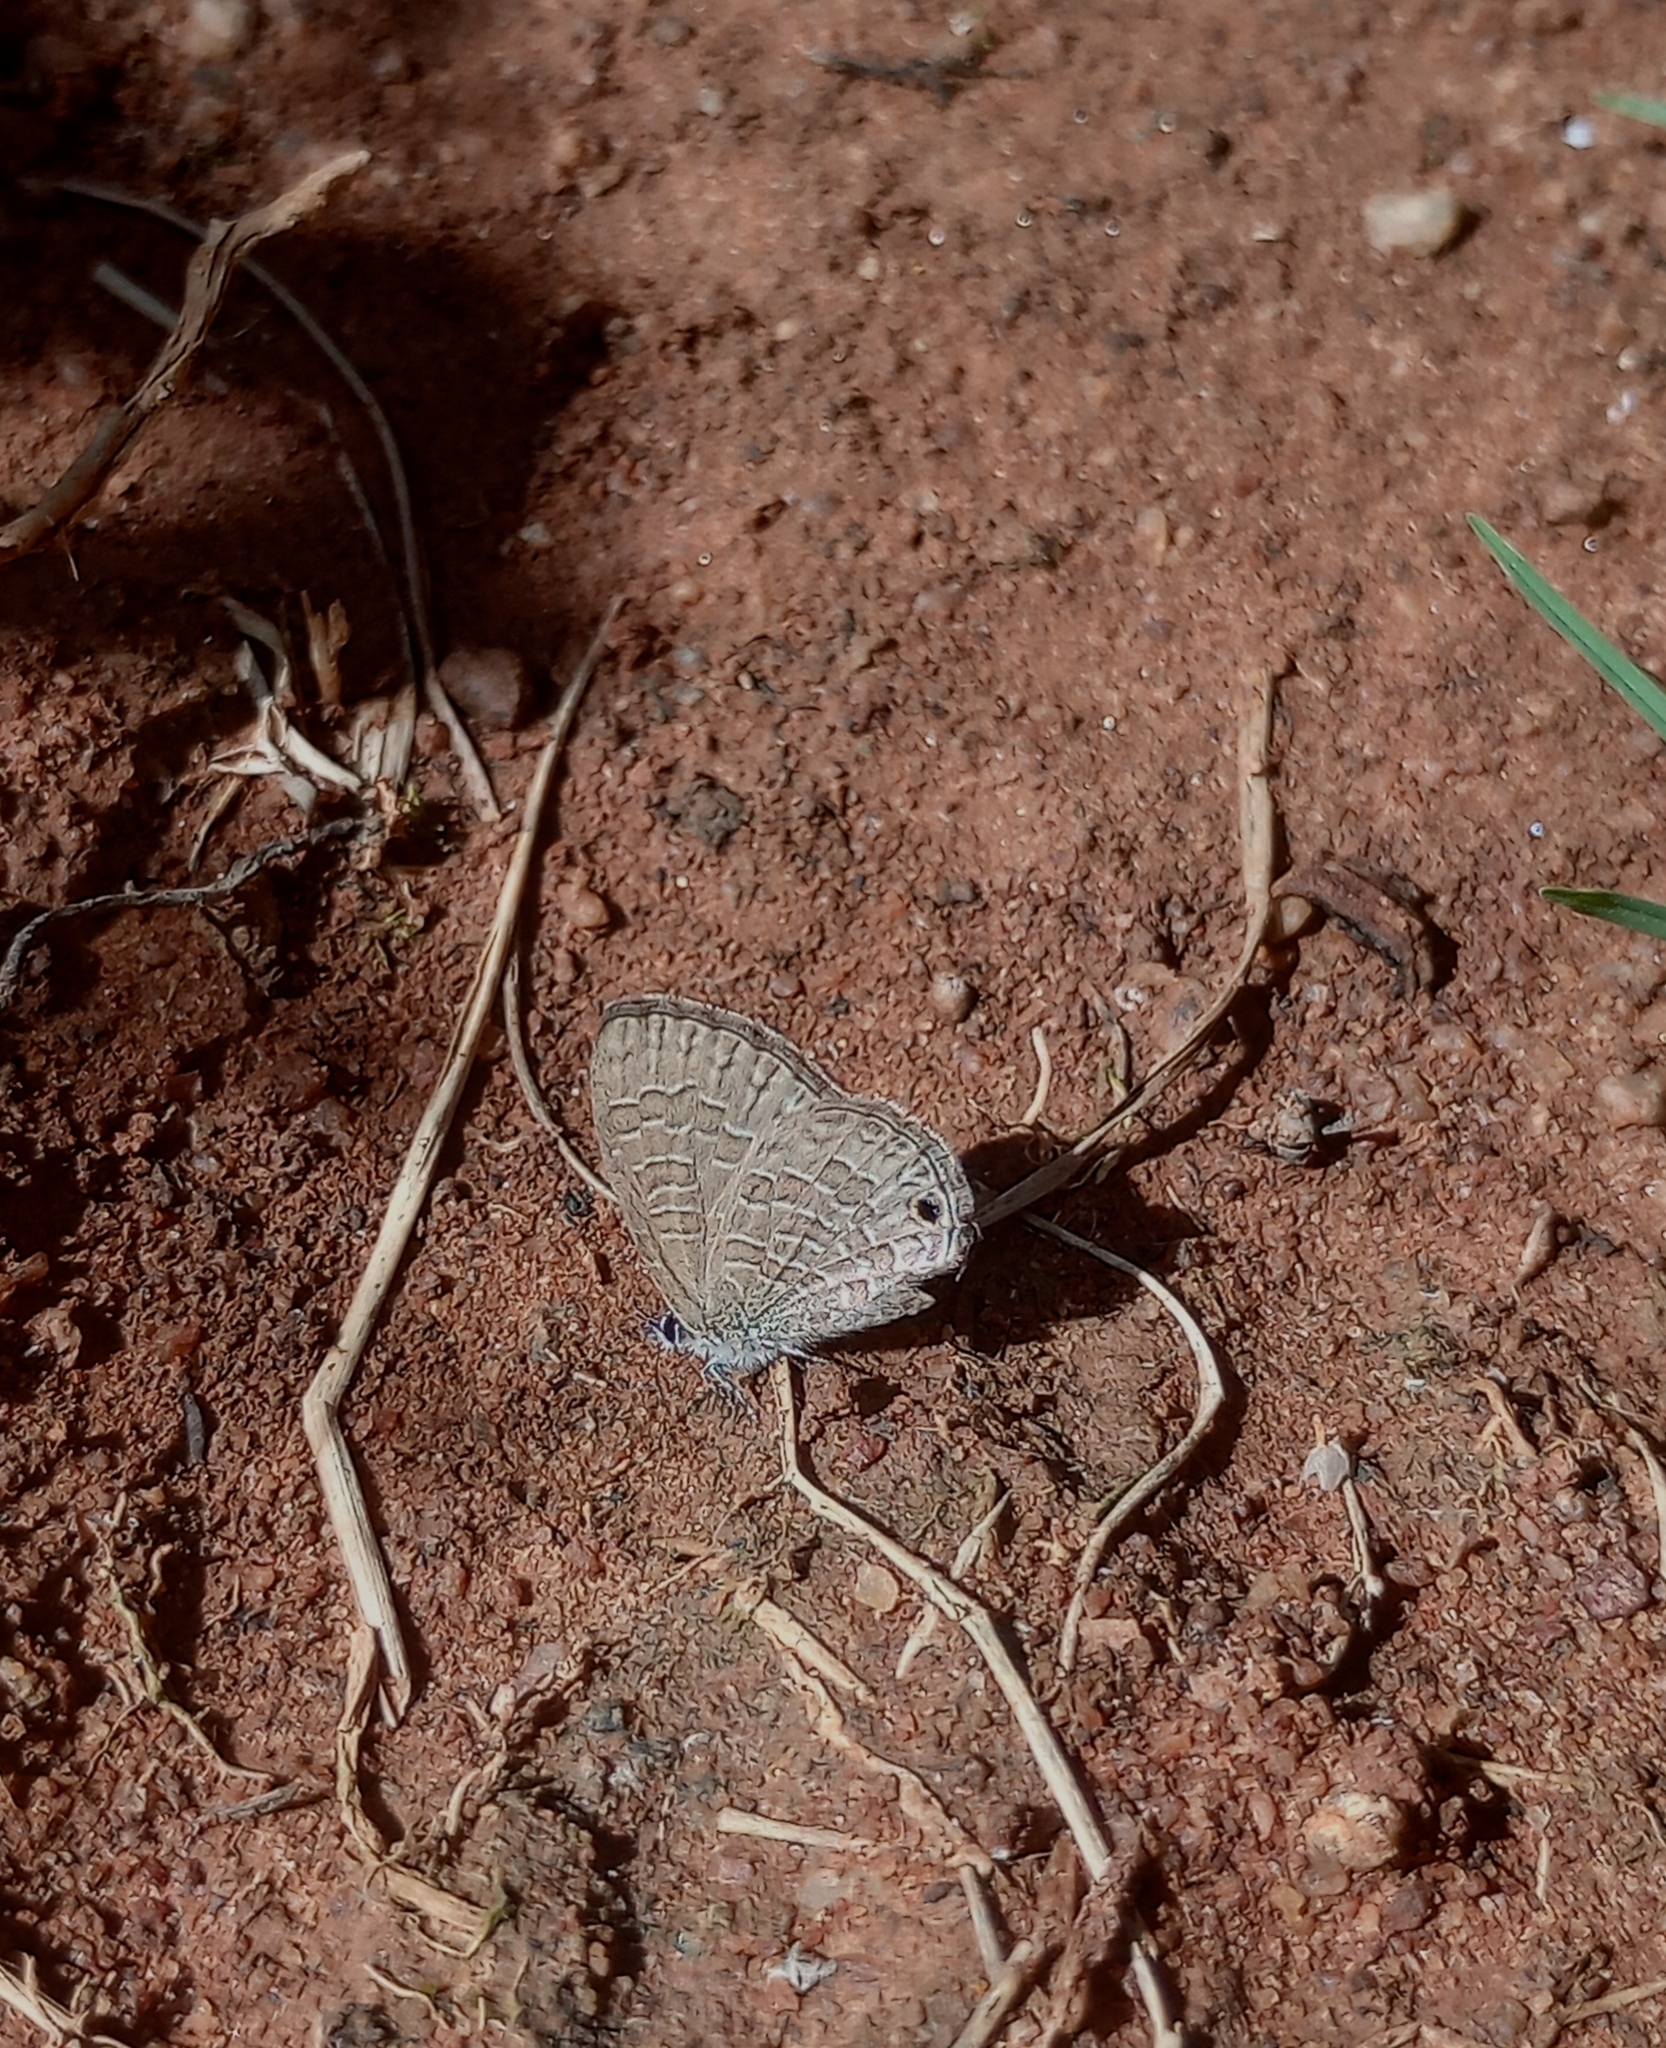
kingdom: Animalia
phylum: Arthropoda
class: Insecta
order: Lepidoptera
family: Lycaenidae
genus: Prosotas
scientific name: Prosotas nora
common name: Common line blue
